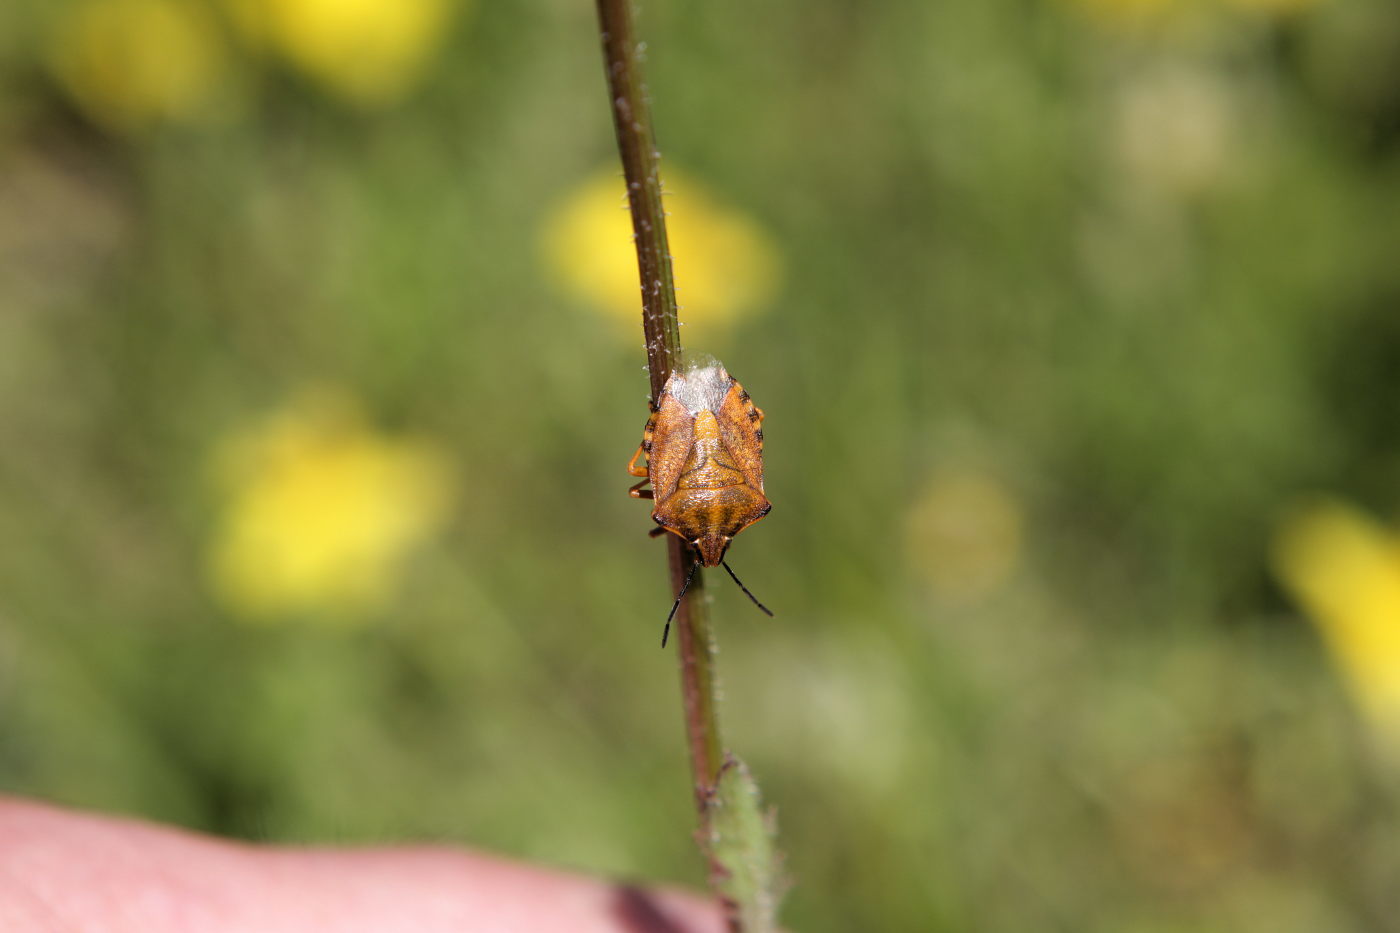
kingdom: Animalia
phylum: Arthropoda
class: Insecta
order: Hemiptera
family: Pentatomidae
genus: Carpocoris
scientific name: Carpocoris purpureipennis
